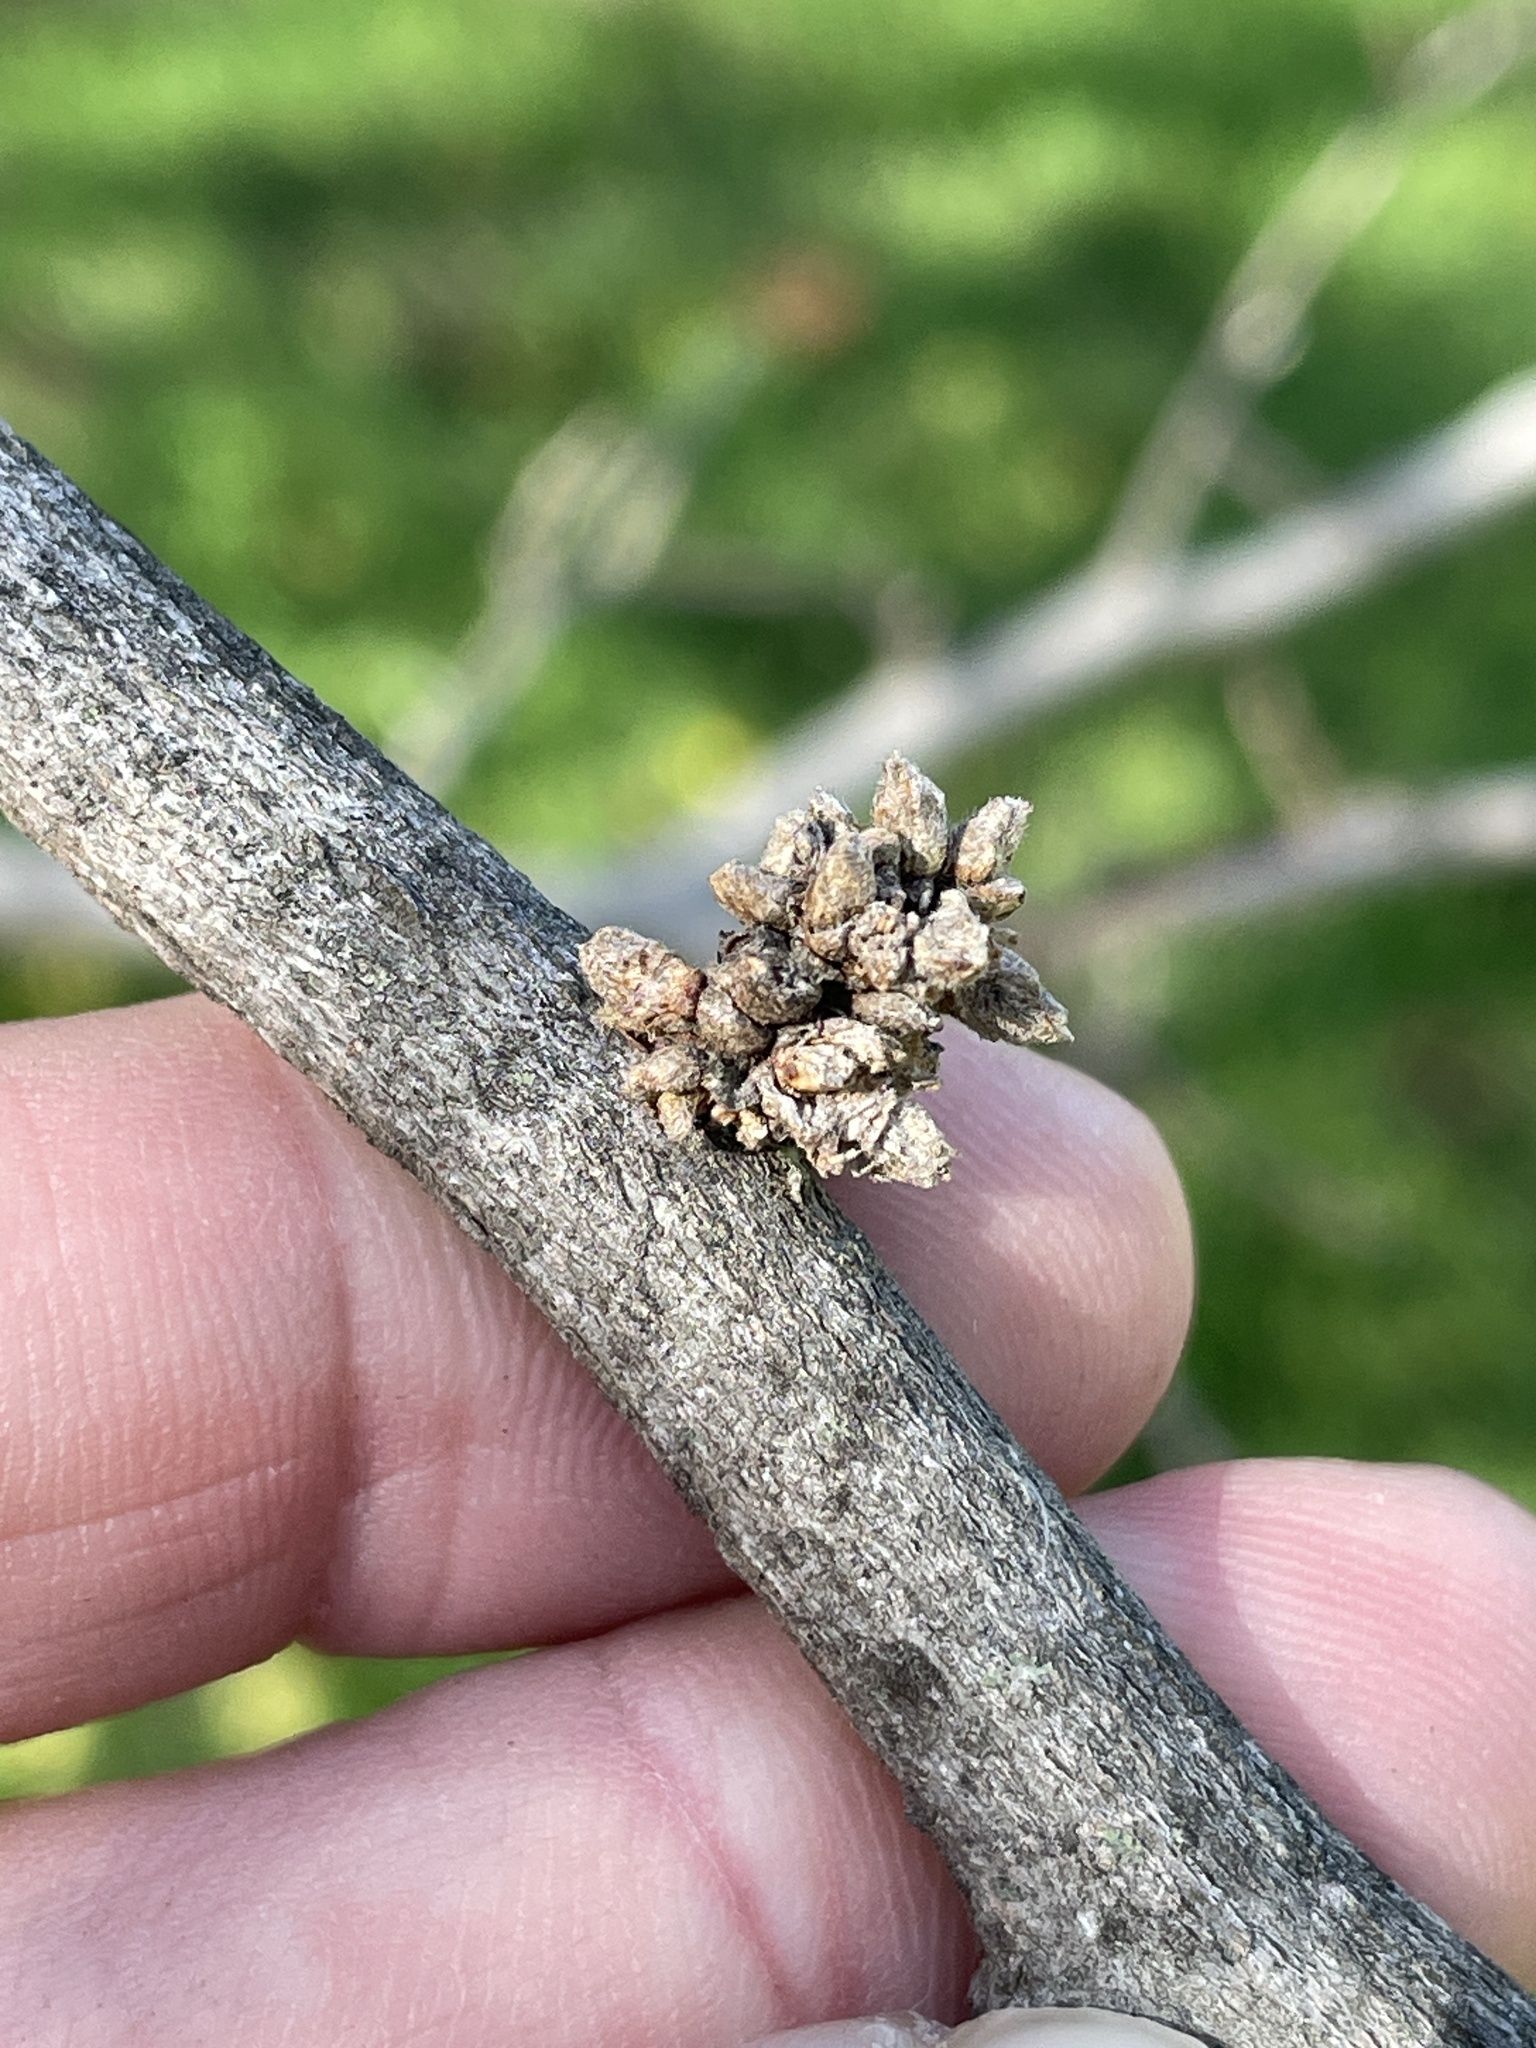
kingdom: Animalia
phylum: Arthropoda
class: Arachnida
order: Trombidiformes
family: Eriophyidae
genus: Aceria
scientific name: Aceria
